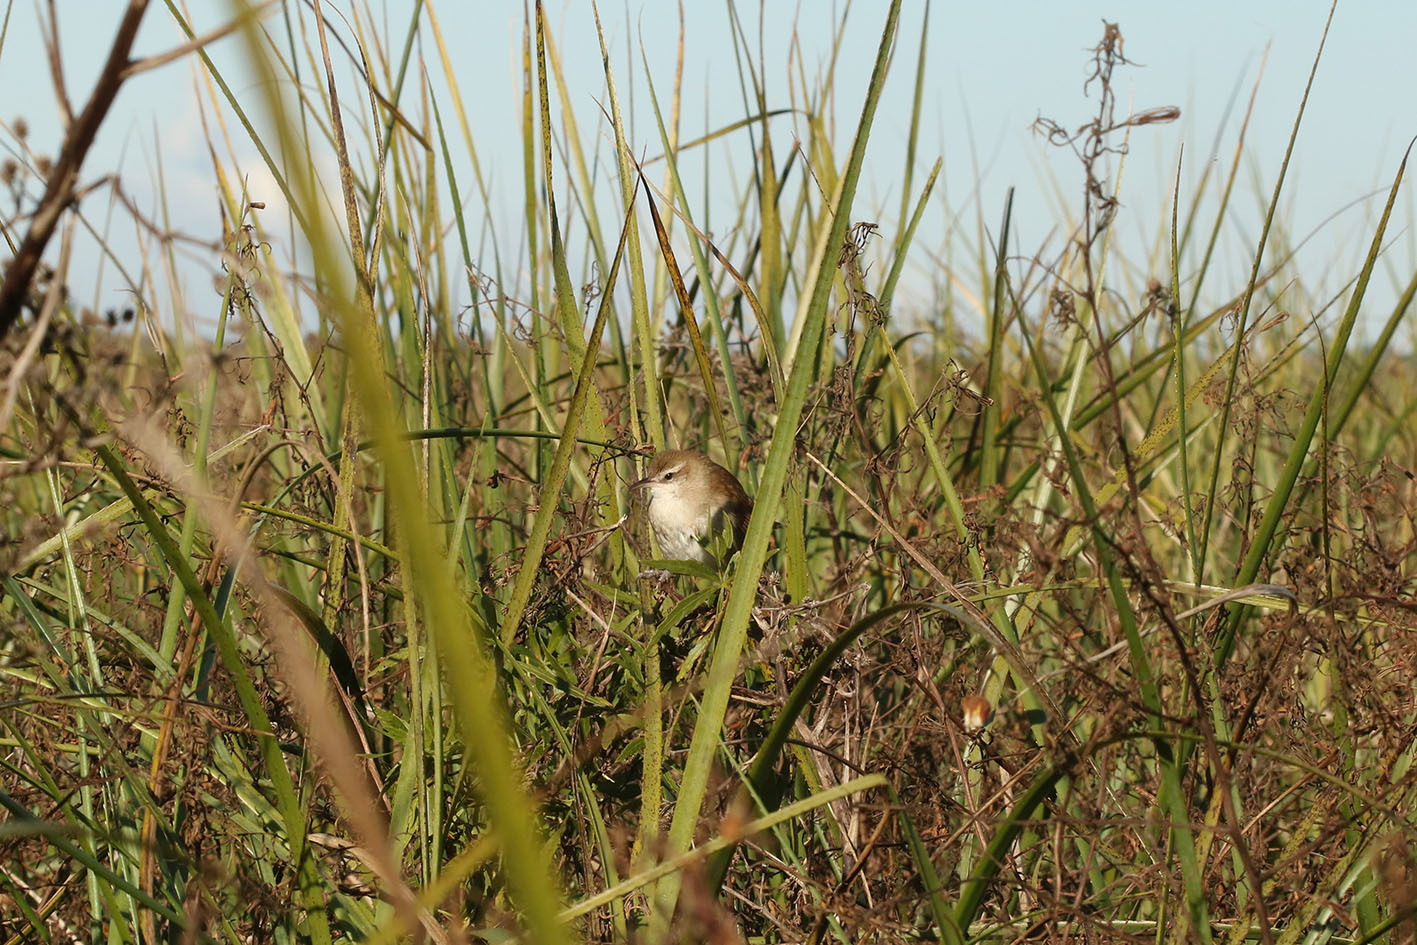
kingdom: Animalia
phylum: Chordata
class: Aves
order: Passeriformes
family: Furnariidae
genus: Limnornis
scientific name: Limnornis curvirostris
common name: Curve-billed reedhaunter
